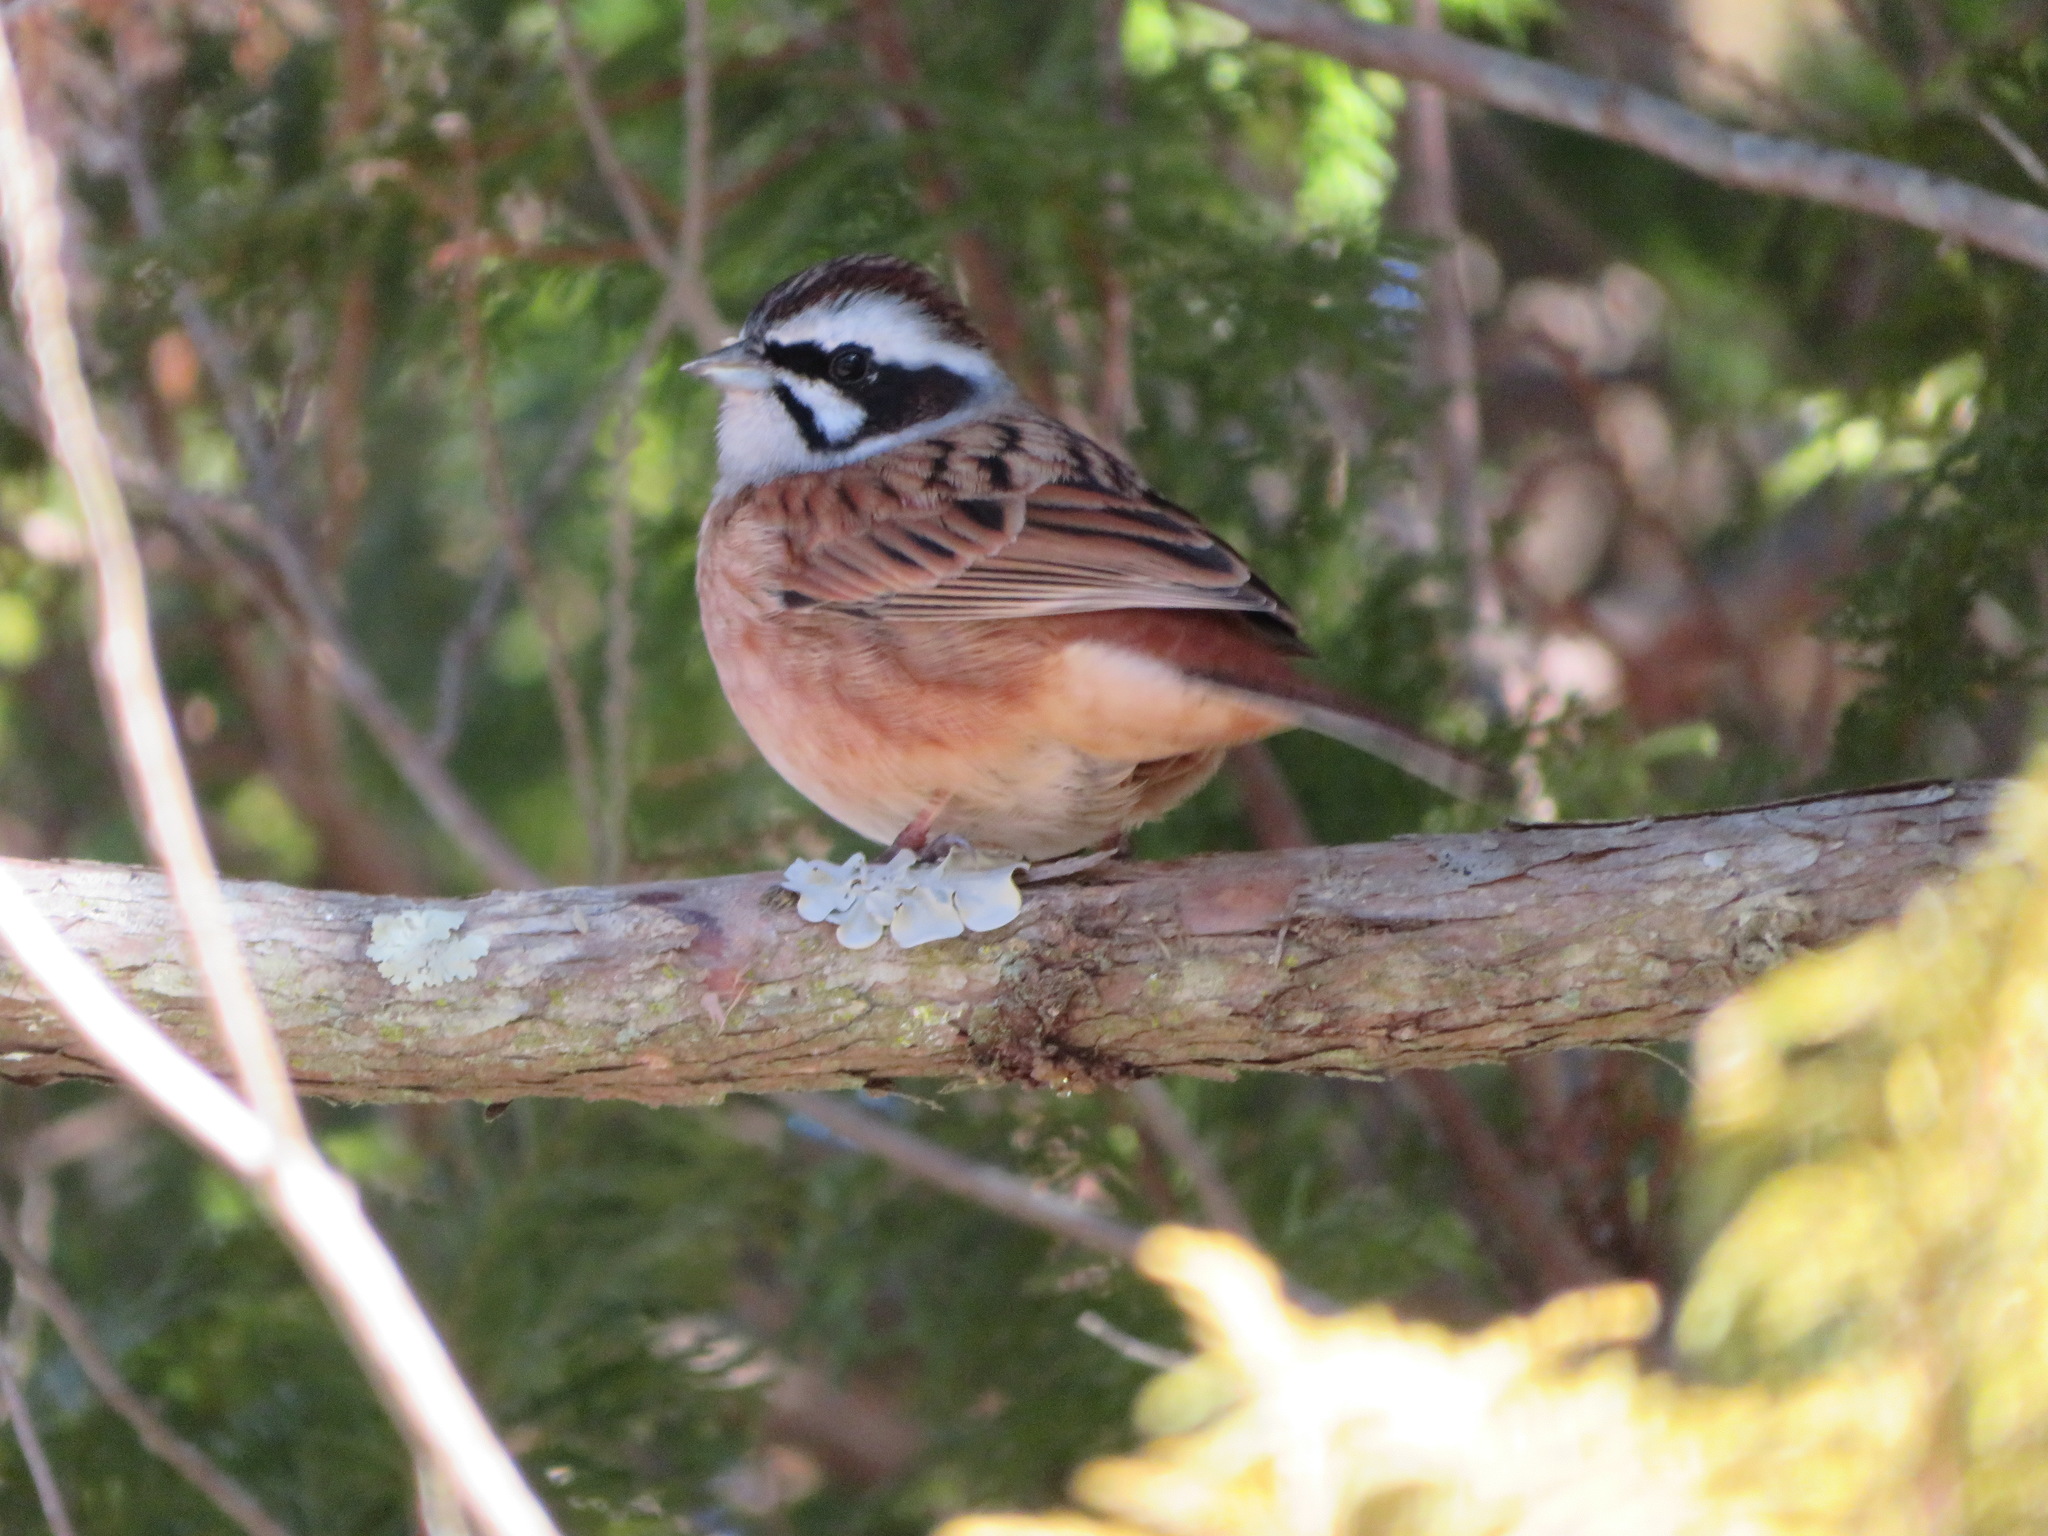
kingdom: Animalia
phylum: Chordata
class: Aves
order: Passeriformes
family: Emberizidae
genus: Emberiza
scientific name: Emberiza cioides
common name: Meadow bunting
